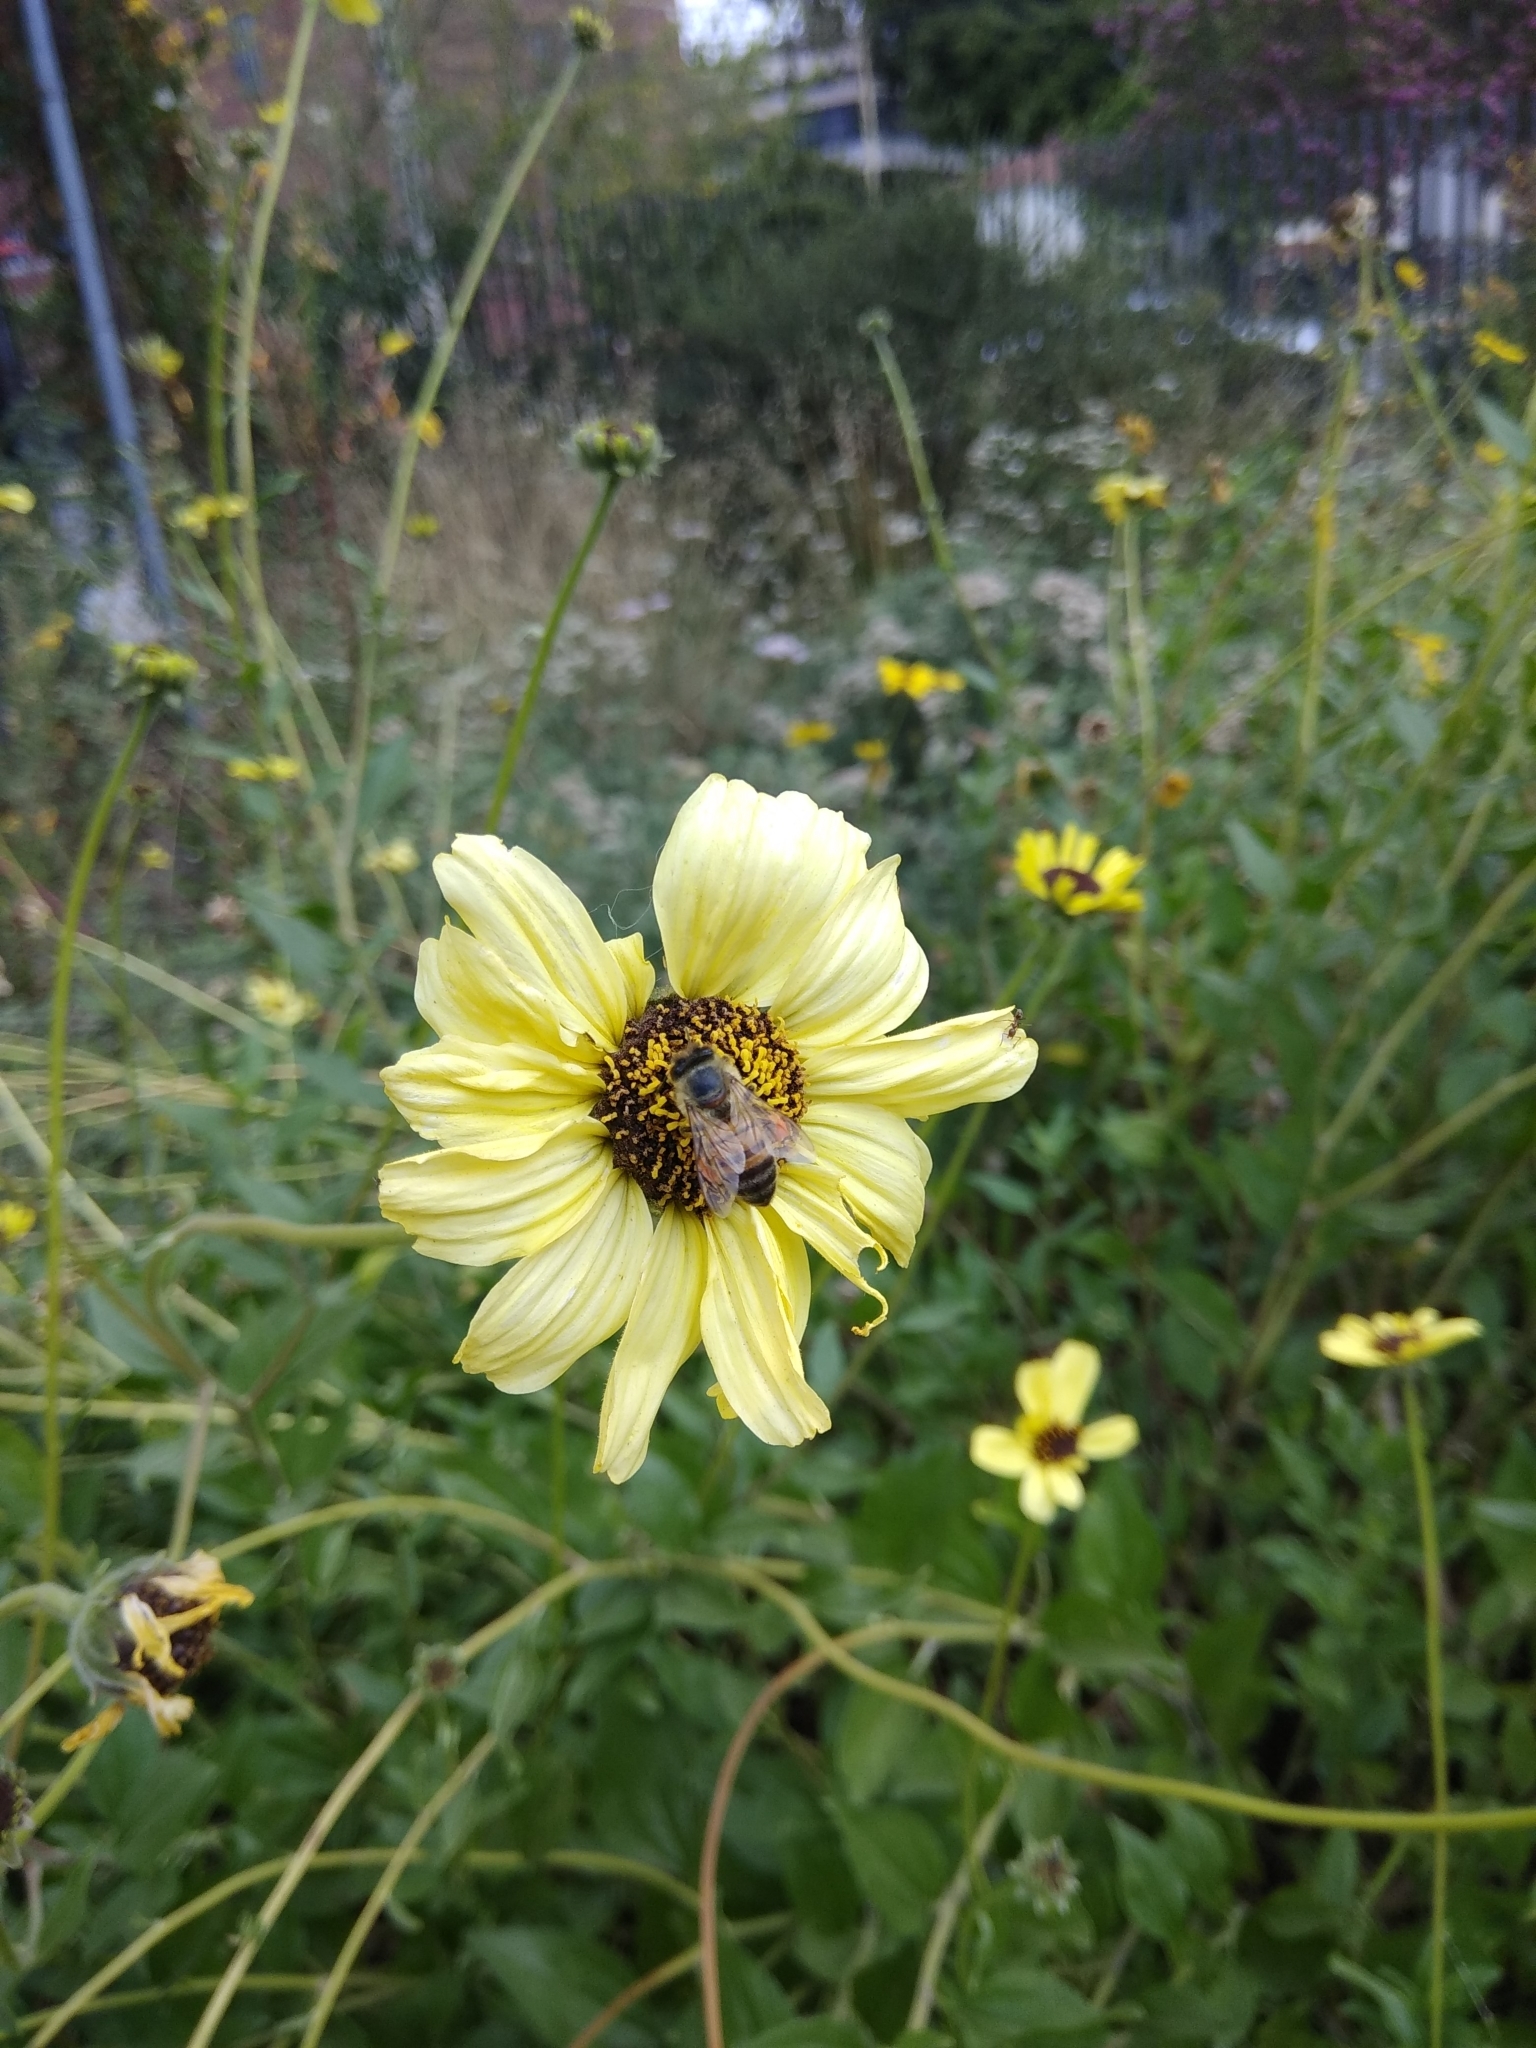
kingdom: Animalia
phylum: Arthropoda
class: Insecta
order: Hymenoptera
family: Apidae
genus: Apis
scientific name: Apis mellifera
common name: Honey bee
